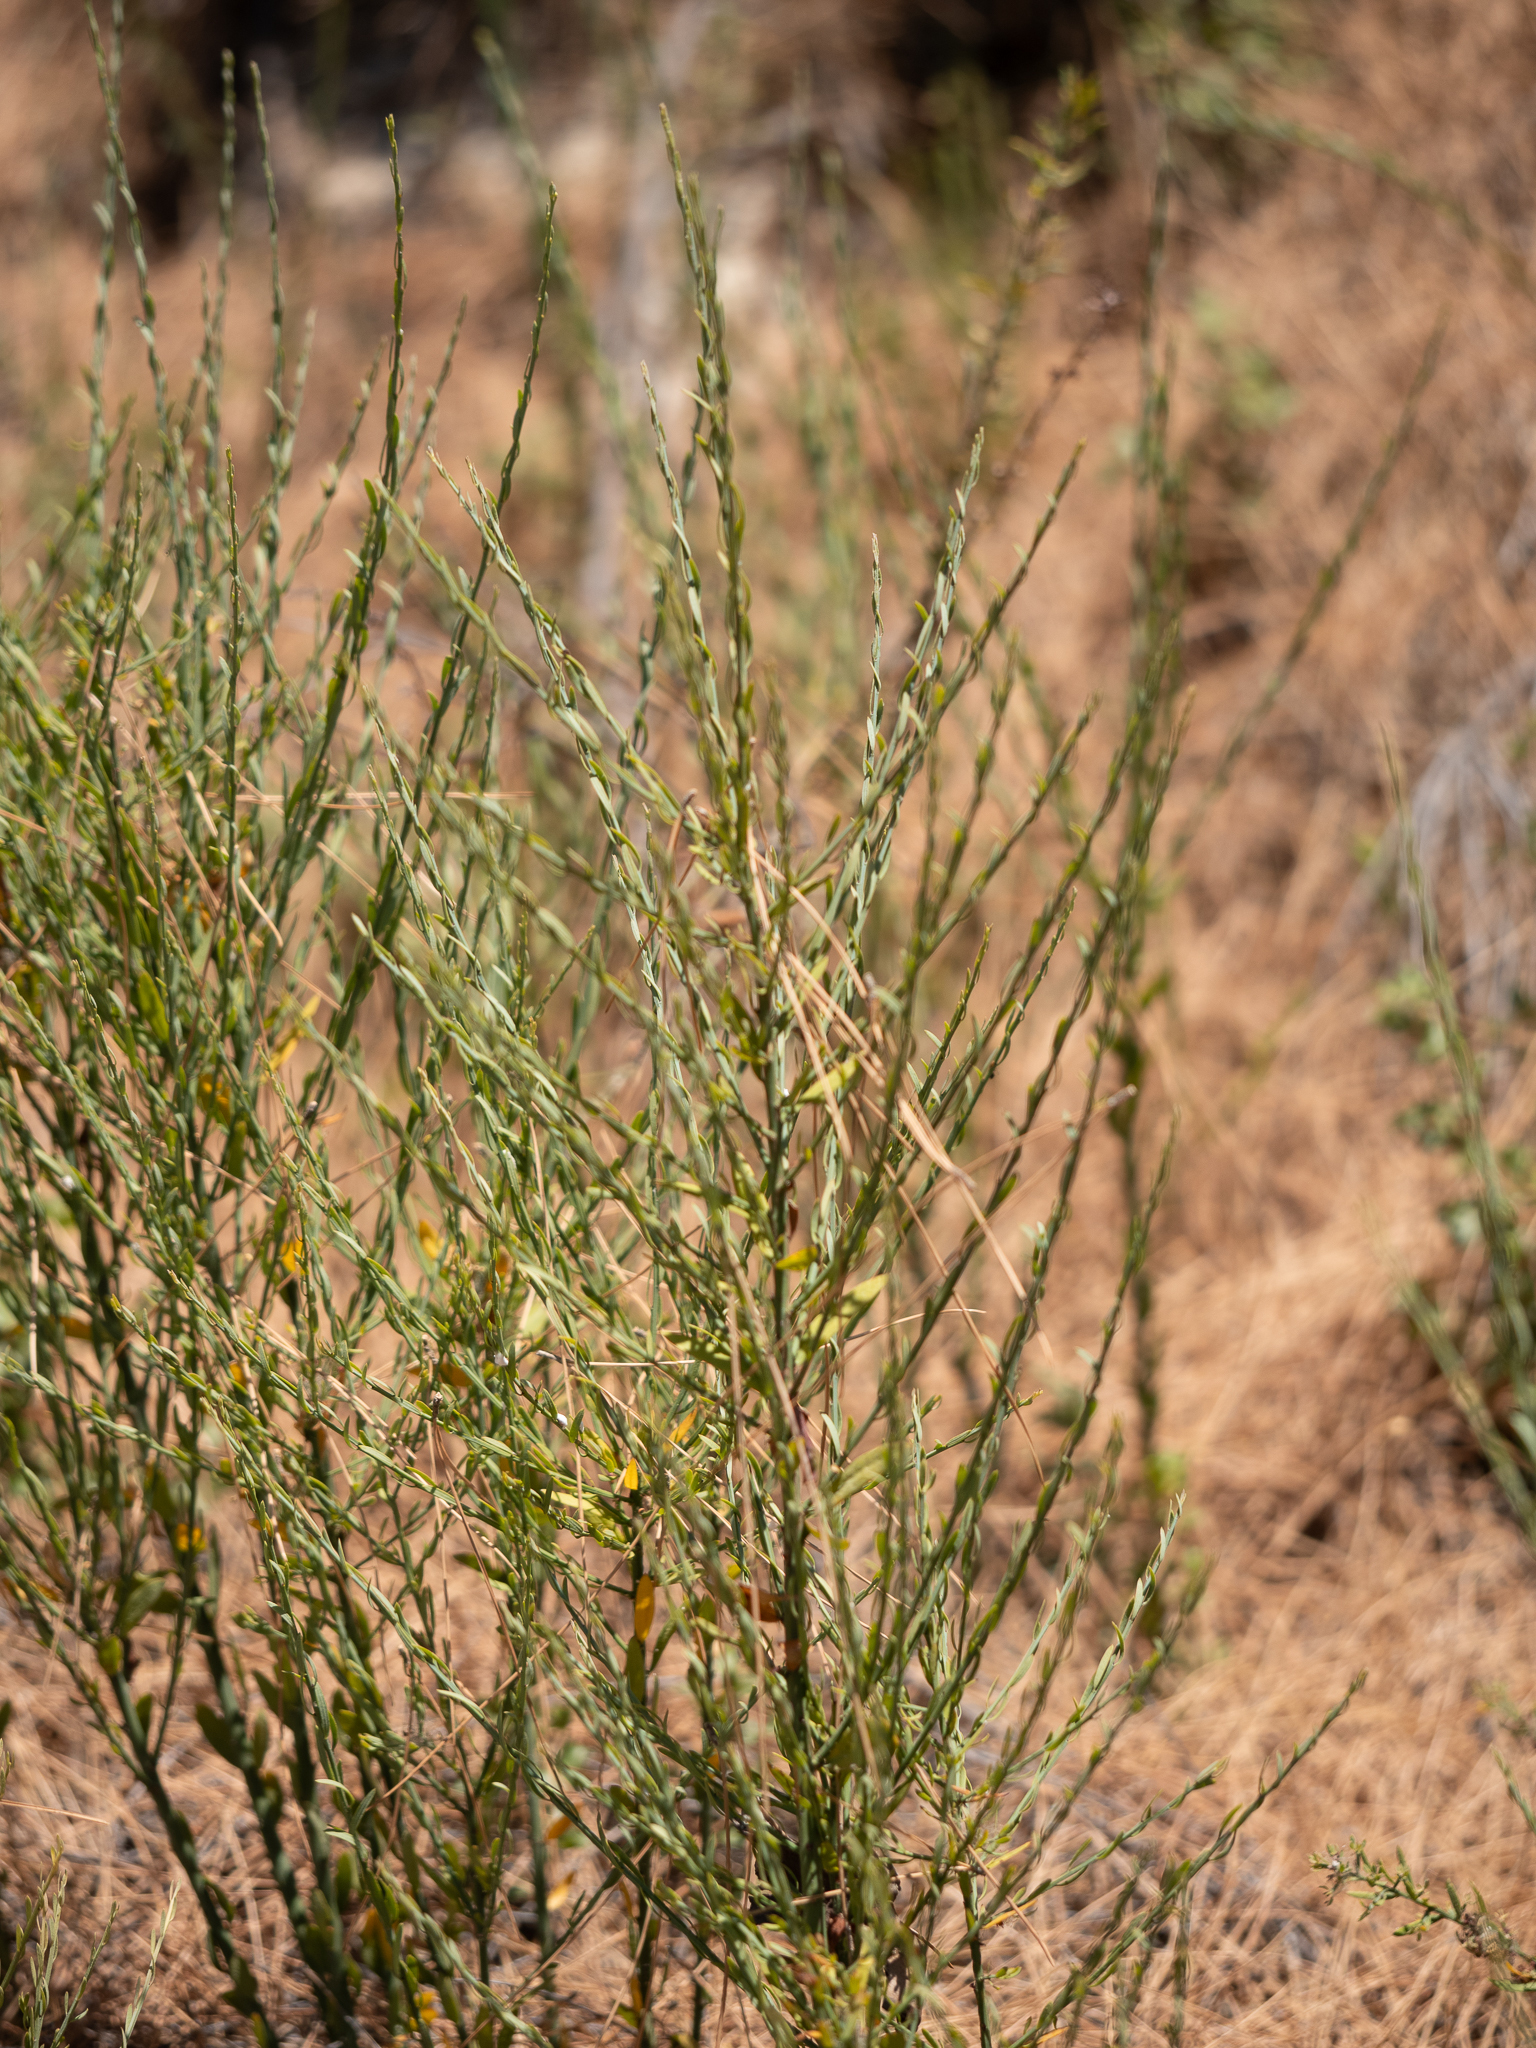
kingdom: Plantae
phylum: Tracheophyta
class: Magnoliopsida
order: Santalales
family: Santalaceae
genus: Osyris
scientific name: Osyris alba
